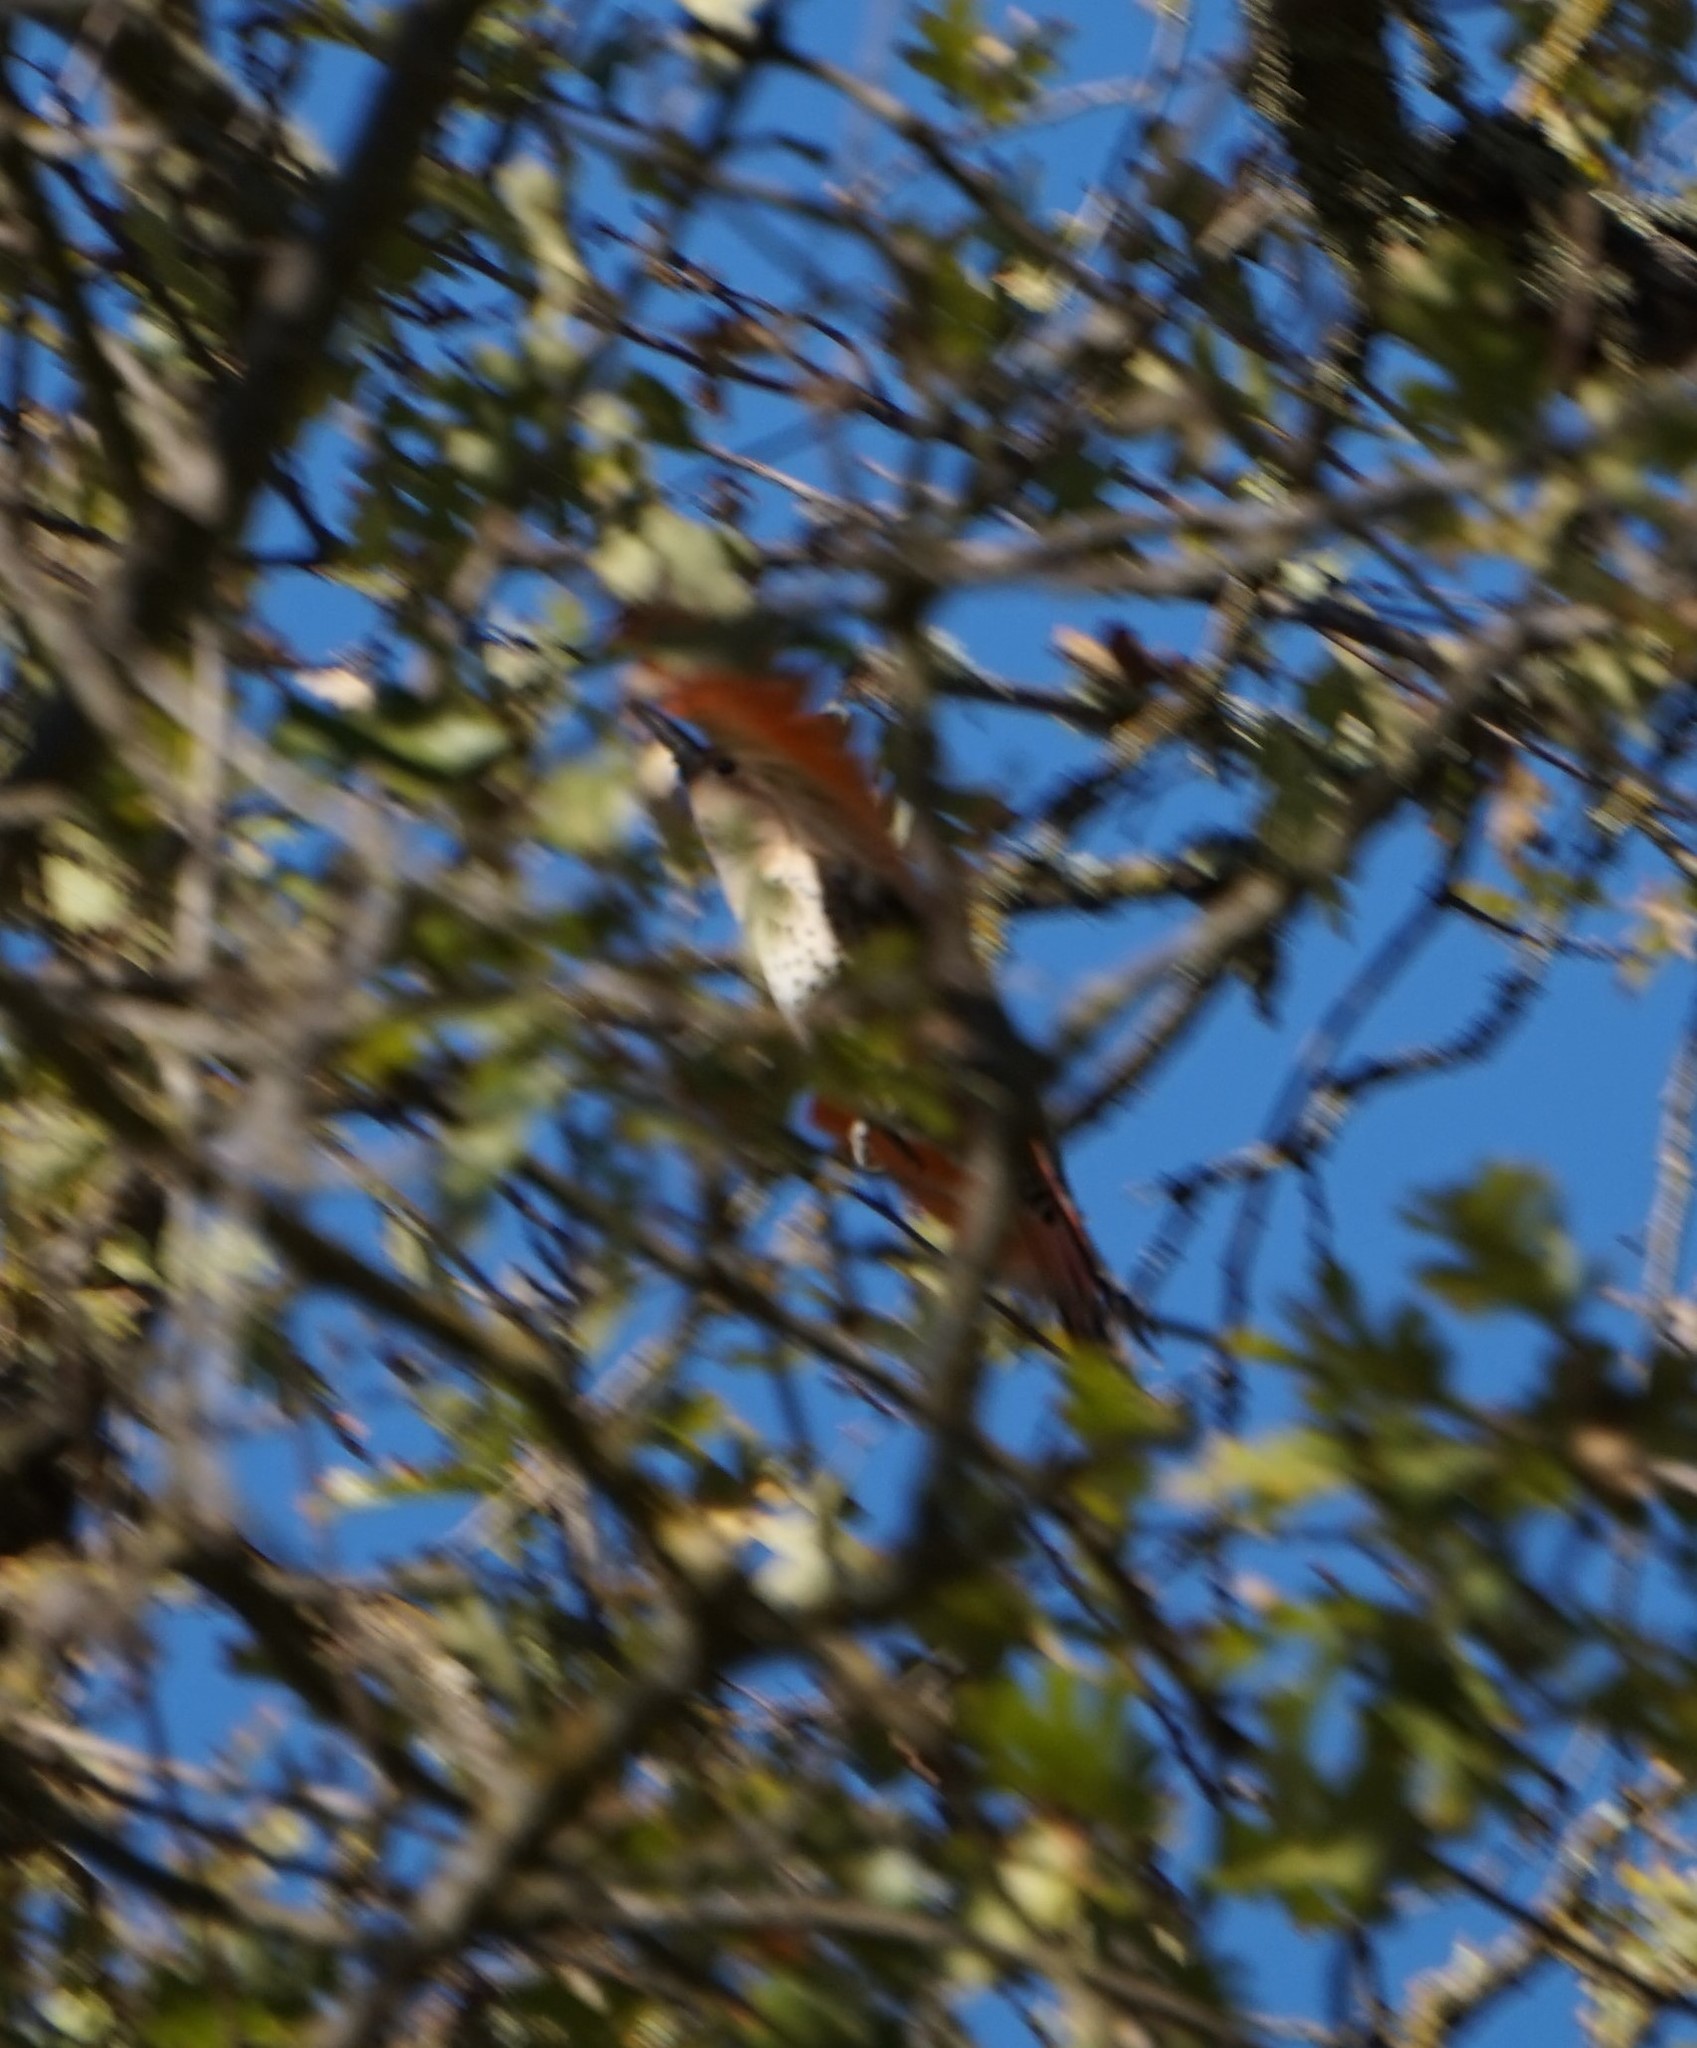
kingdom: Animalia
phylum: Chordata
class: Aves
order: Piciformes
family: Picidae
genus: Colaptes
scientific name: Colaptes auratus
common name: Northern flicker
